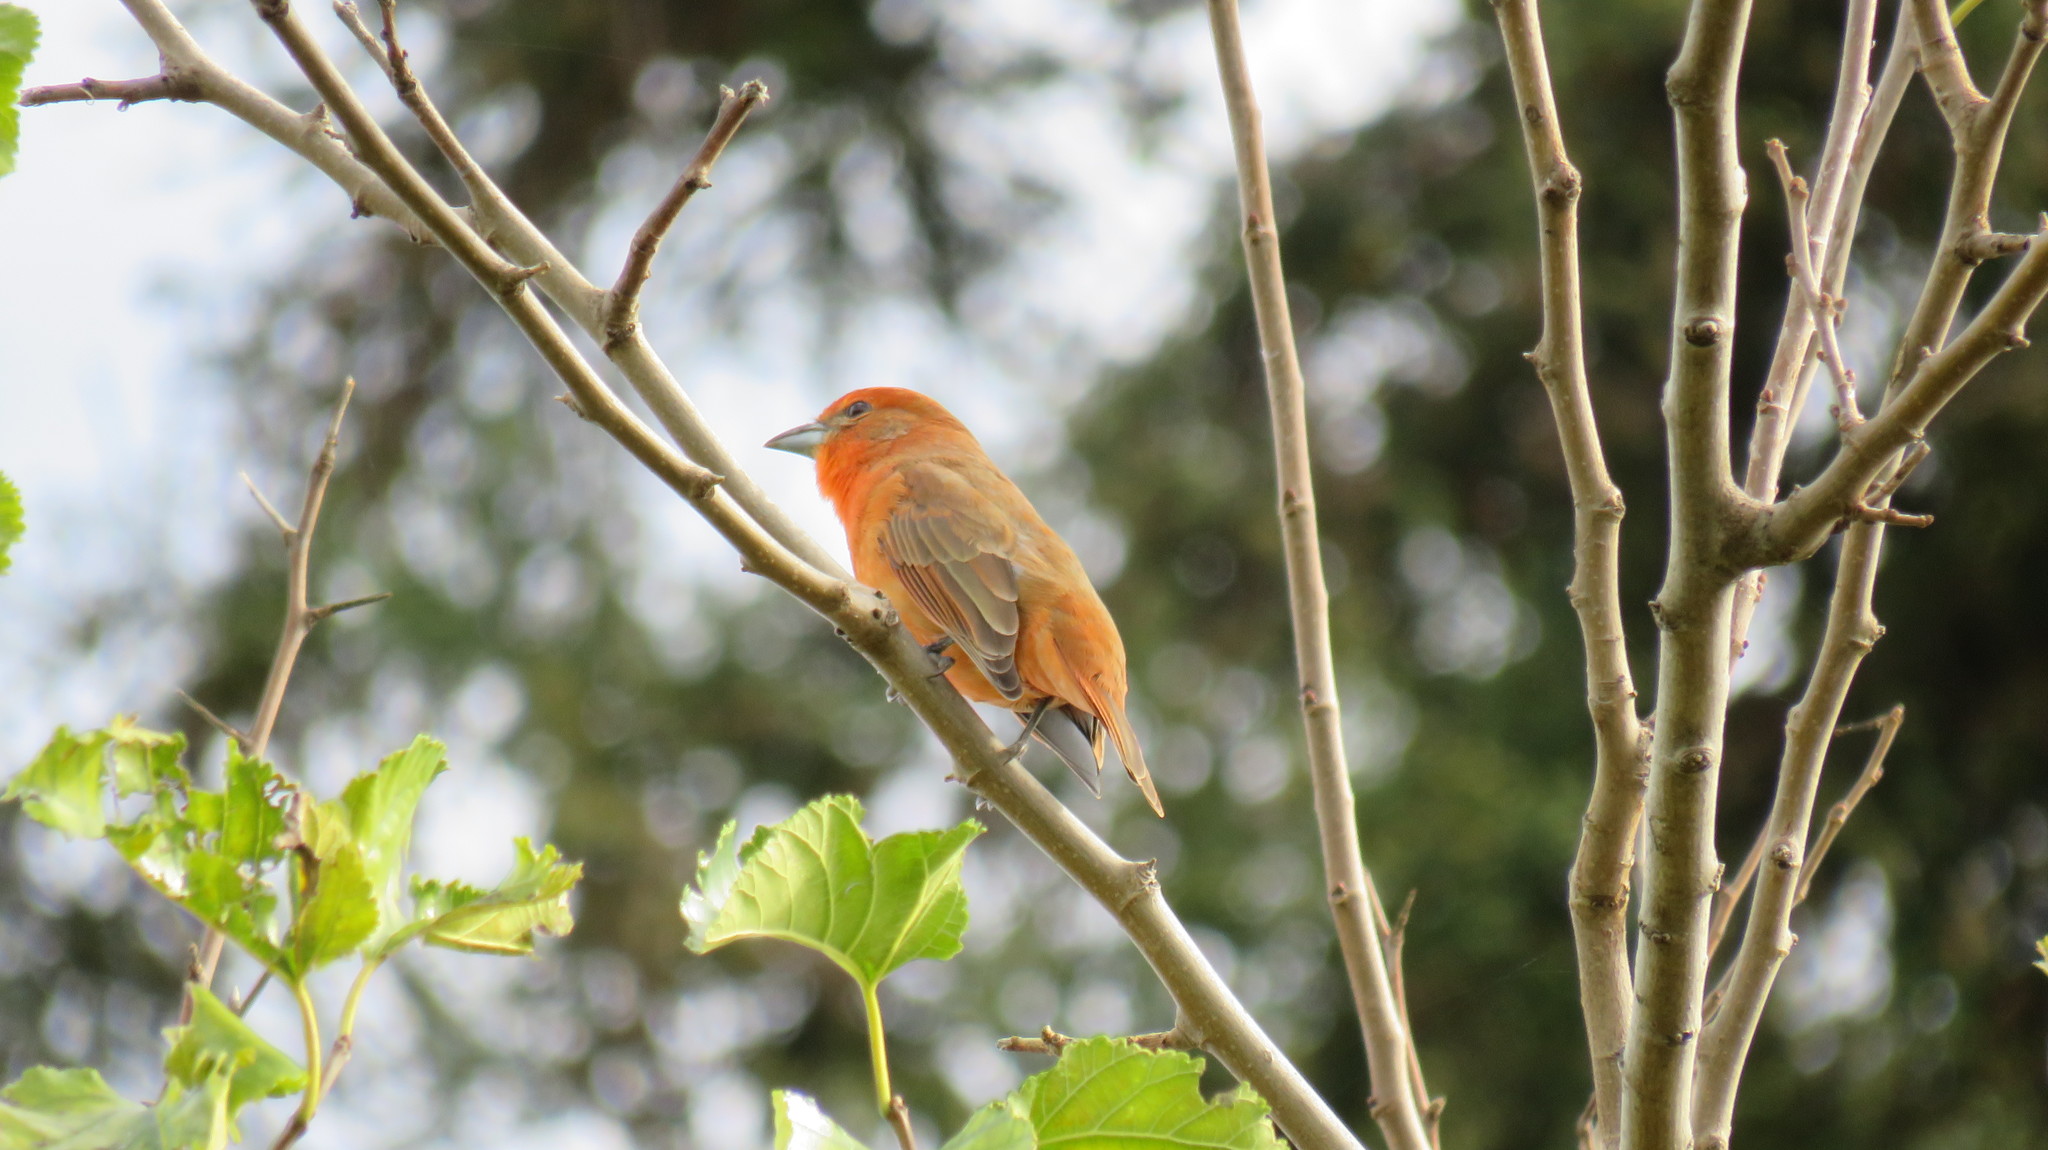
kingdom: Animalia
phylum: Chordata
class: Aves
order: Passeriformes
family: Cardinalidae
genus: Piranga
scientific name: Piranga flava
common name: Red tanager
